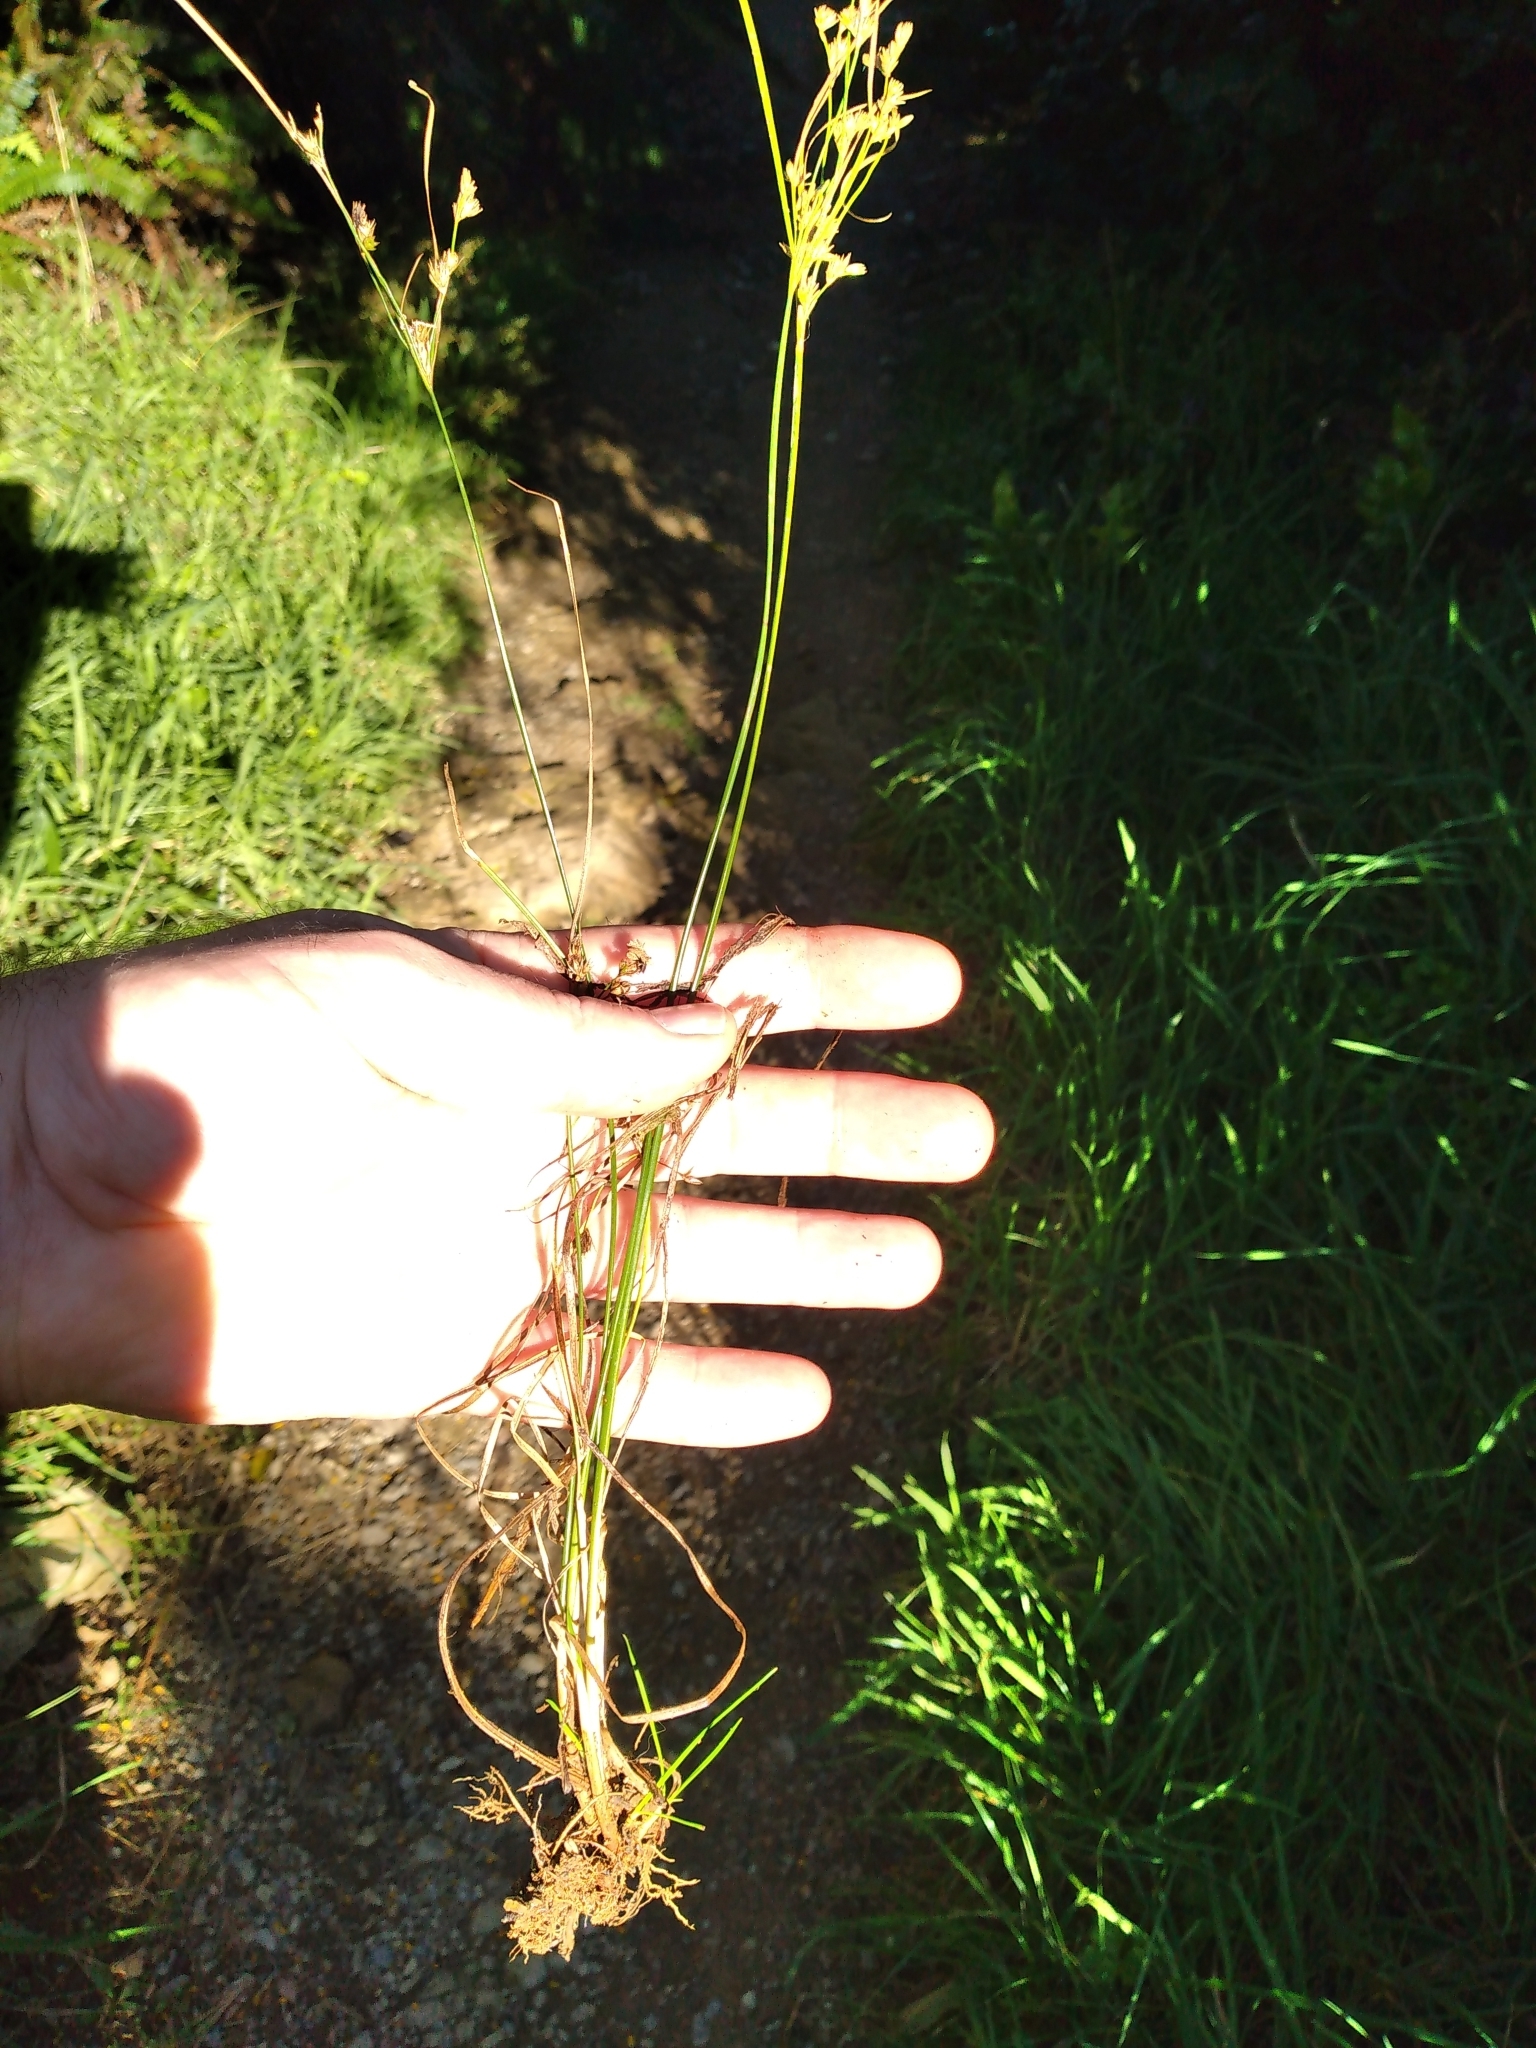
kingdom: Plantae
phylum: Tracheophyta
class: Liliopsida
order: Poales
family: Juncaceae
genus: Juncus
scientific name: Juncus tenuis
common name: Slender rush
